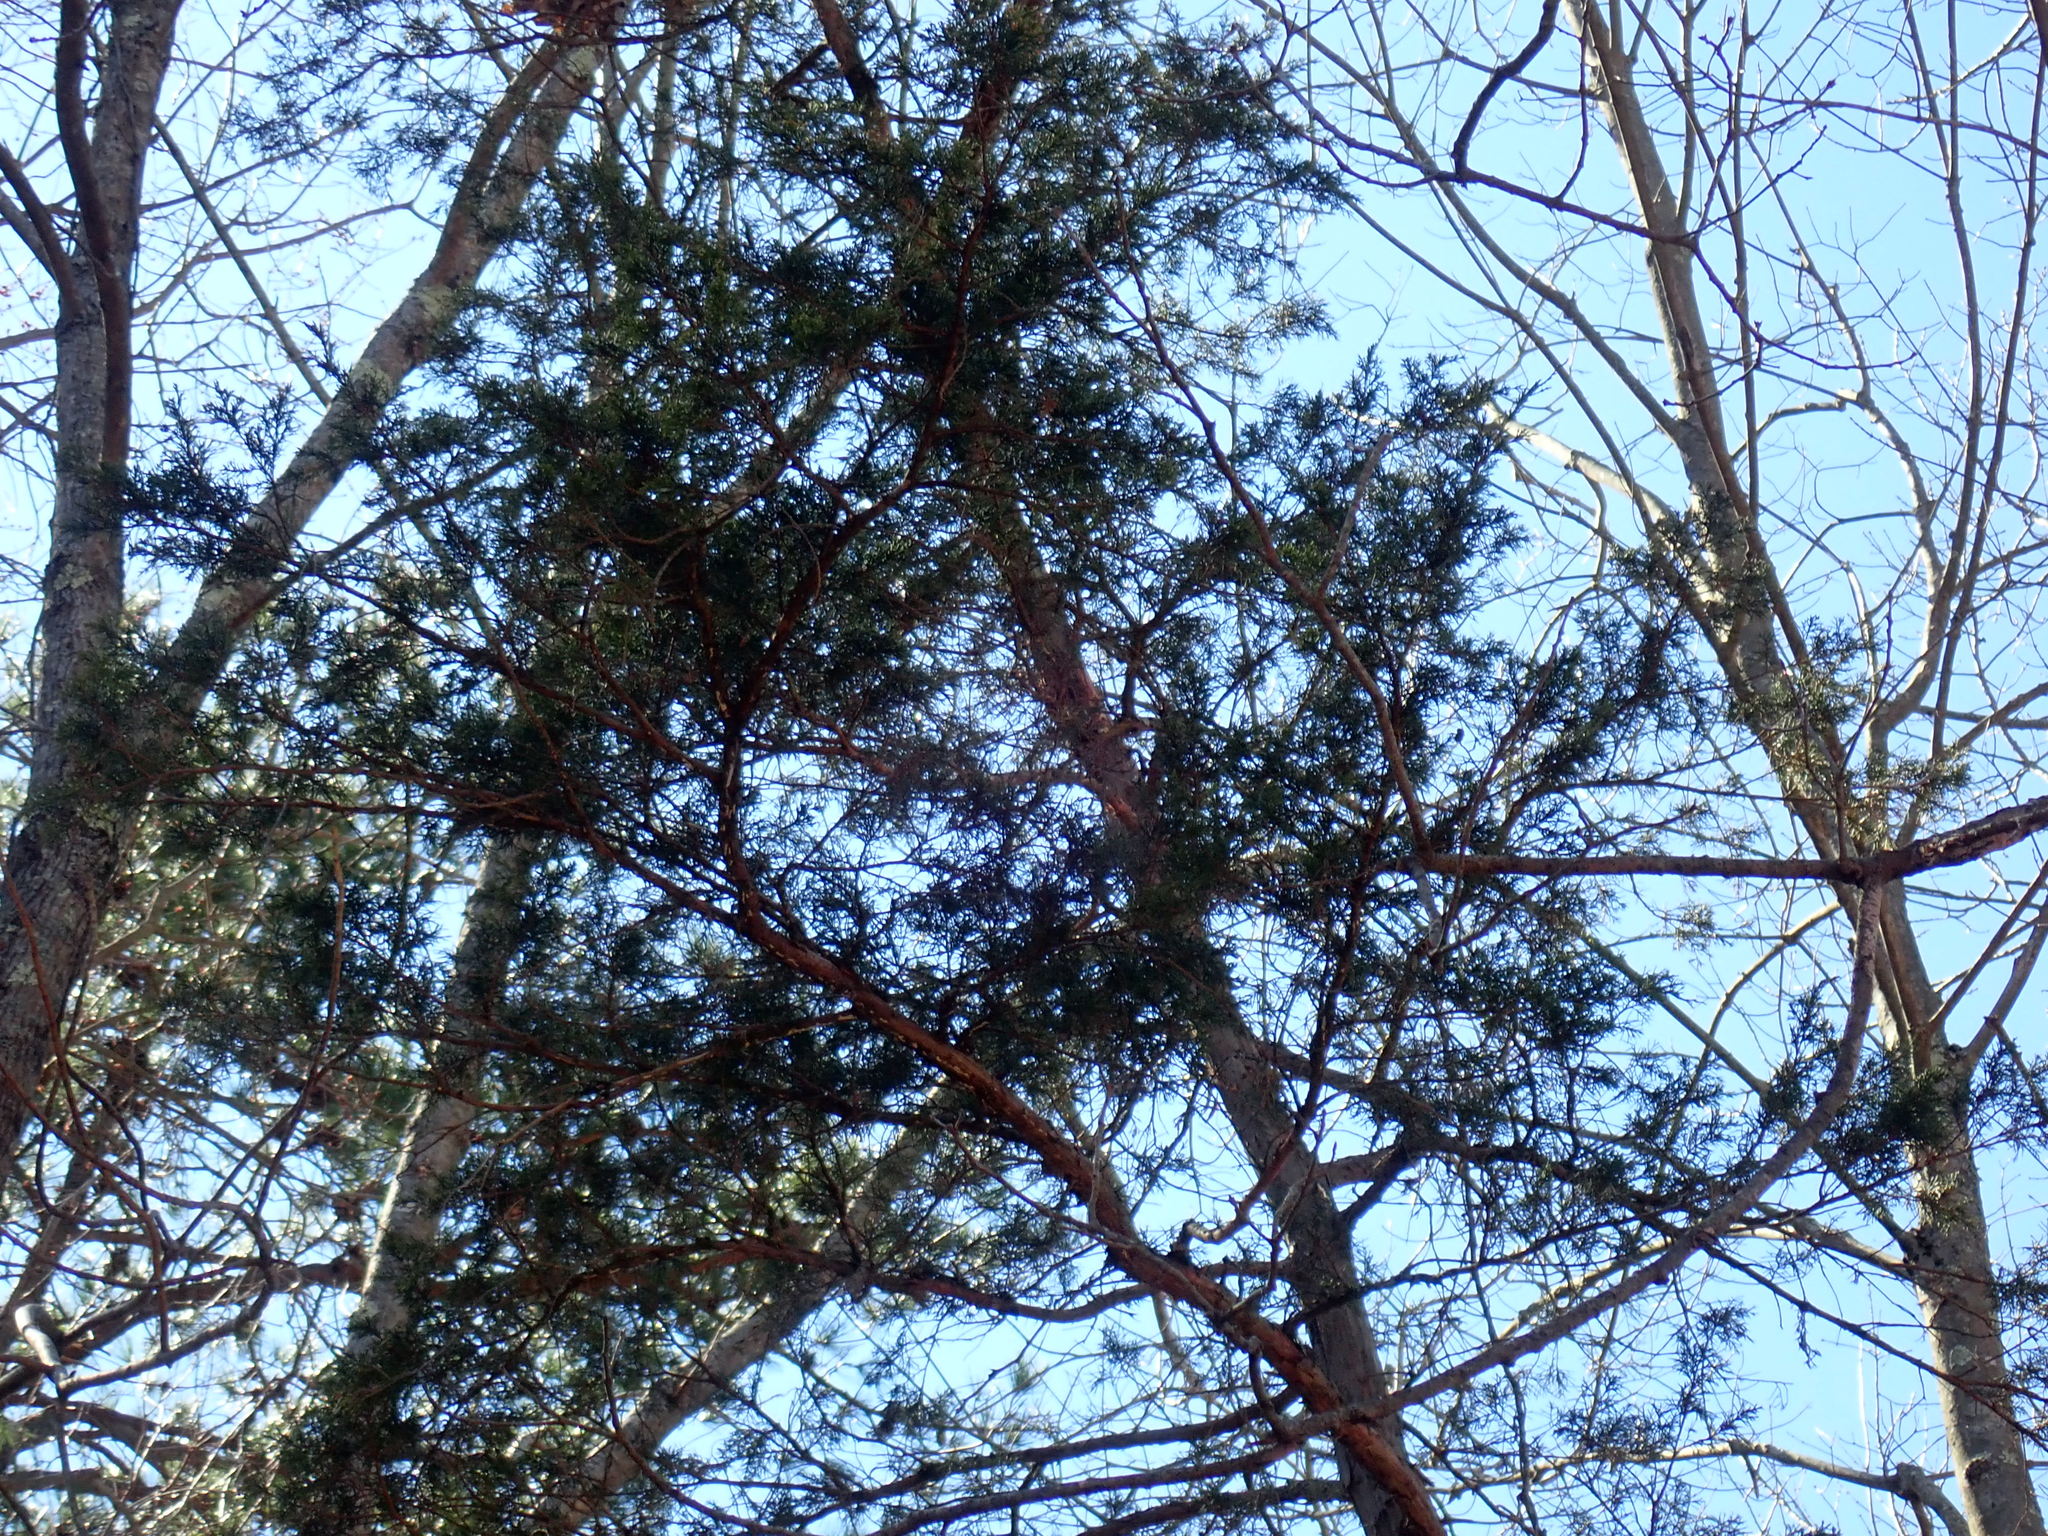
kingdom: Plantae
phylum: Tracheophyta
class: Pinopsida
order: Pinales
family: Cupressaceae
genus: Chamaecyparis
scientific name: Chamaecyparis thyoides
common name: Atlantic white cedar
